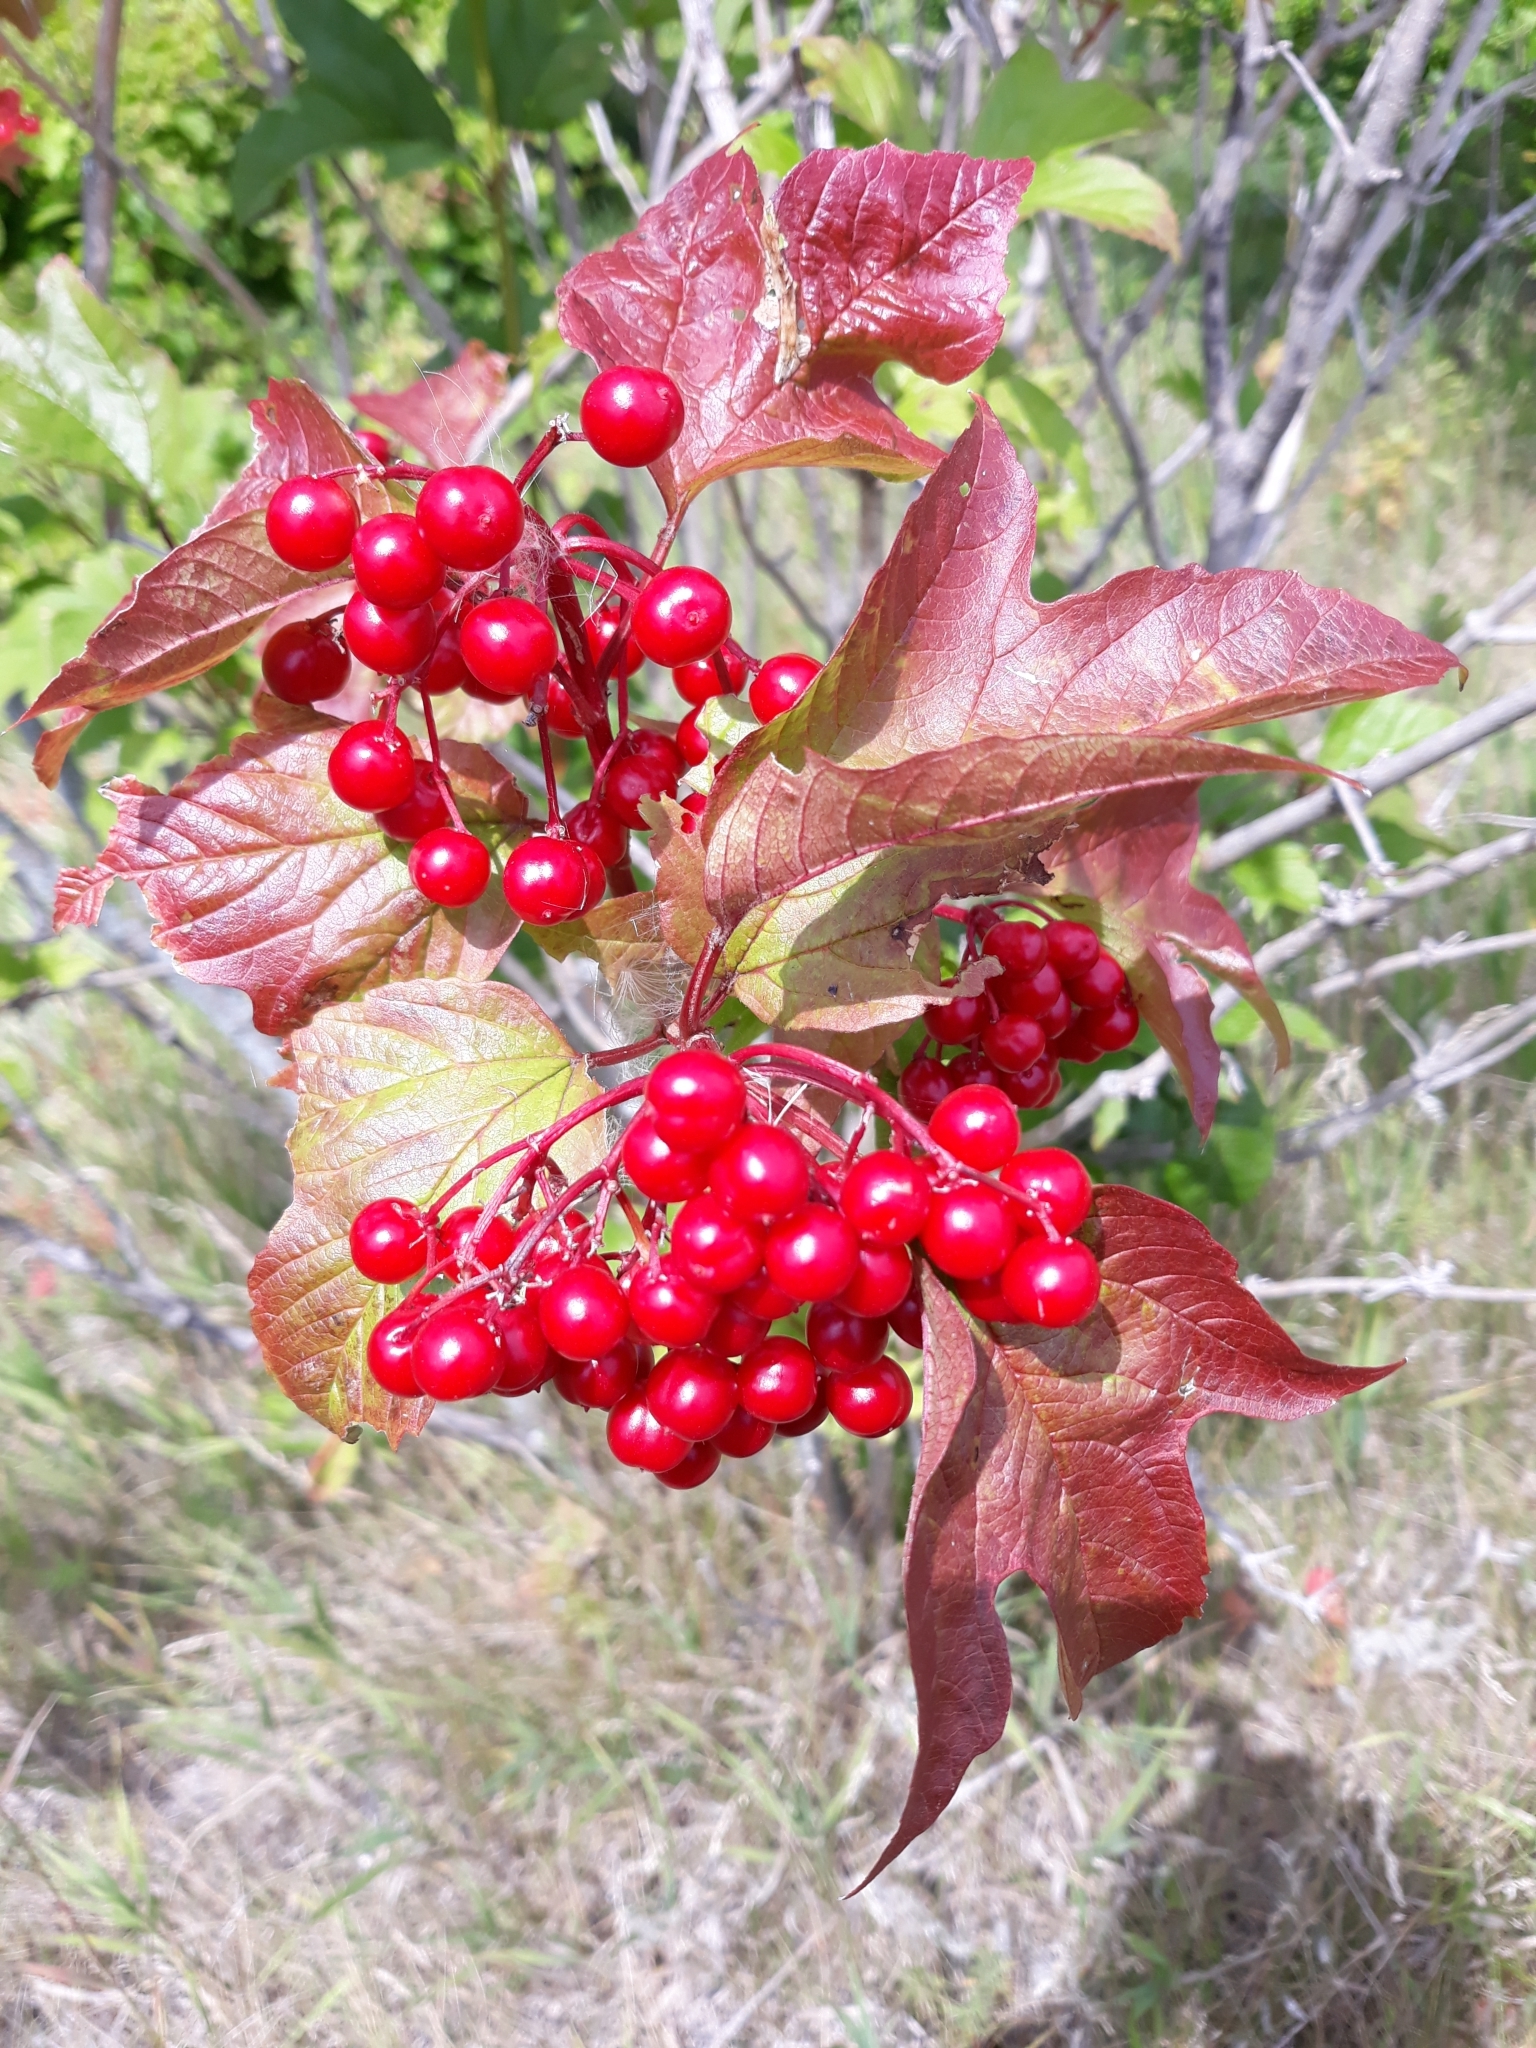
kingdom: Plantae
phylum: Tracheophyta
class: Magnoliopsida
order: Dipsacales
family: Viburnaceae
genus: Viburnum
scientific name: Viburnum opulus
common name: Guelder-rose
